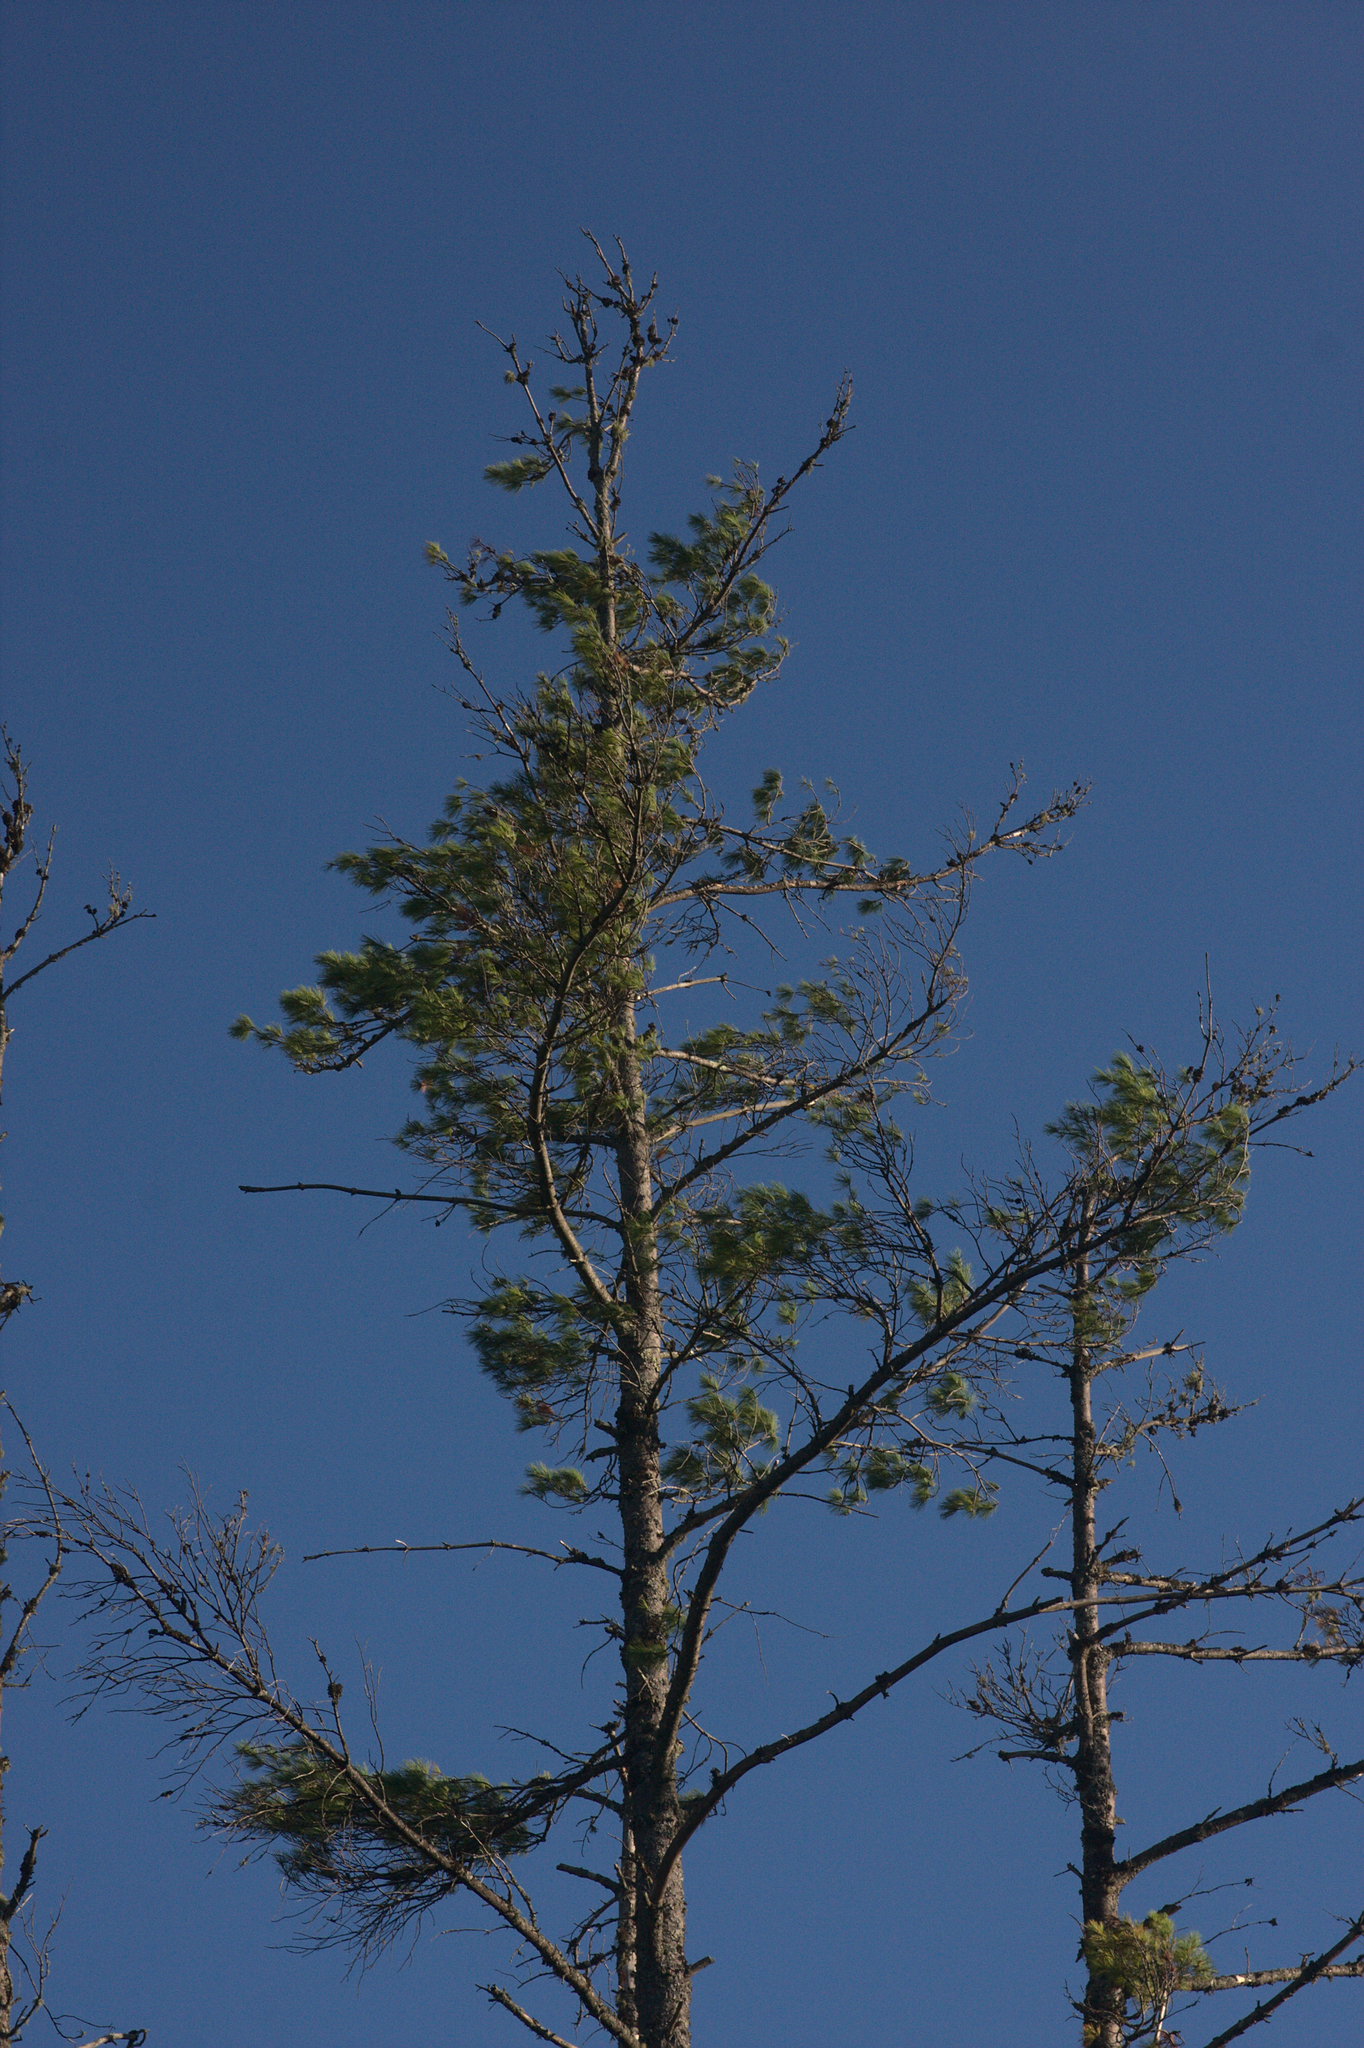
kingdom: Plantae
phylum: Tracheophyta
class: Pinopsida
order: Pinales
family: Pinaceae
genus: Pinus
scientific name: Pinus strobus
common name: Weymouth pine
